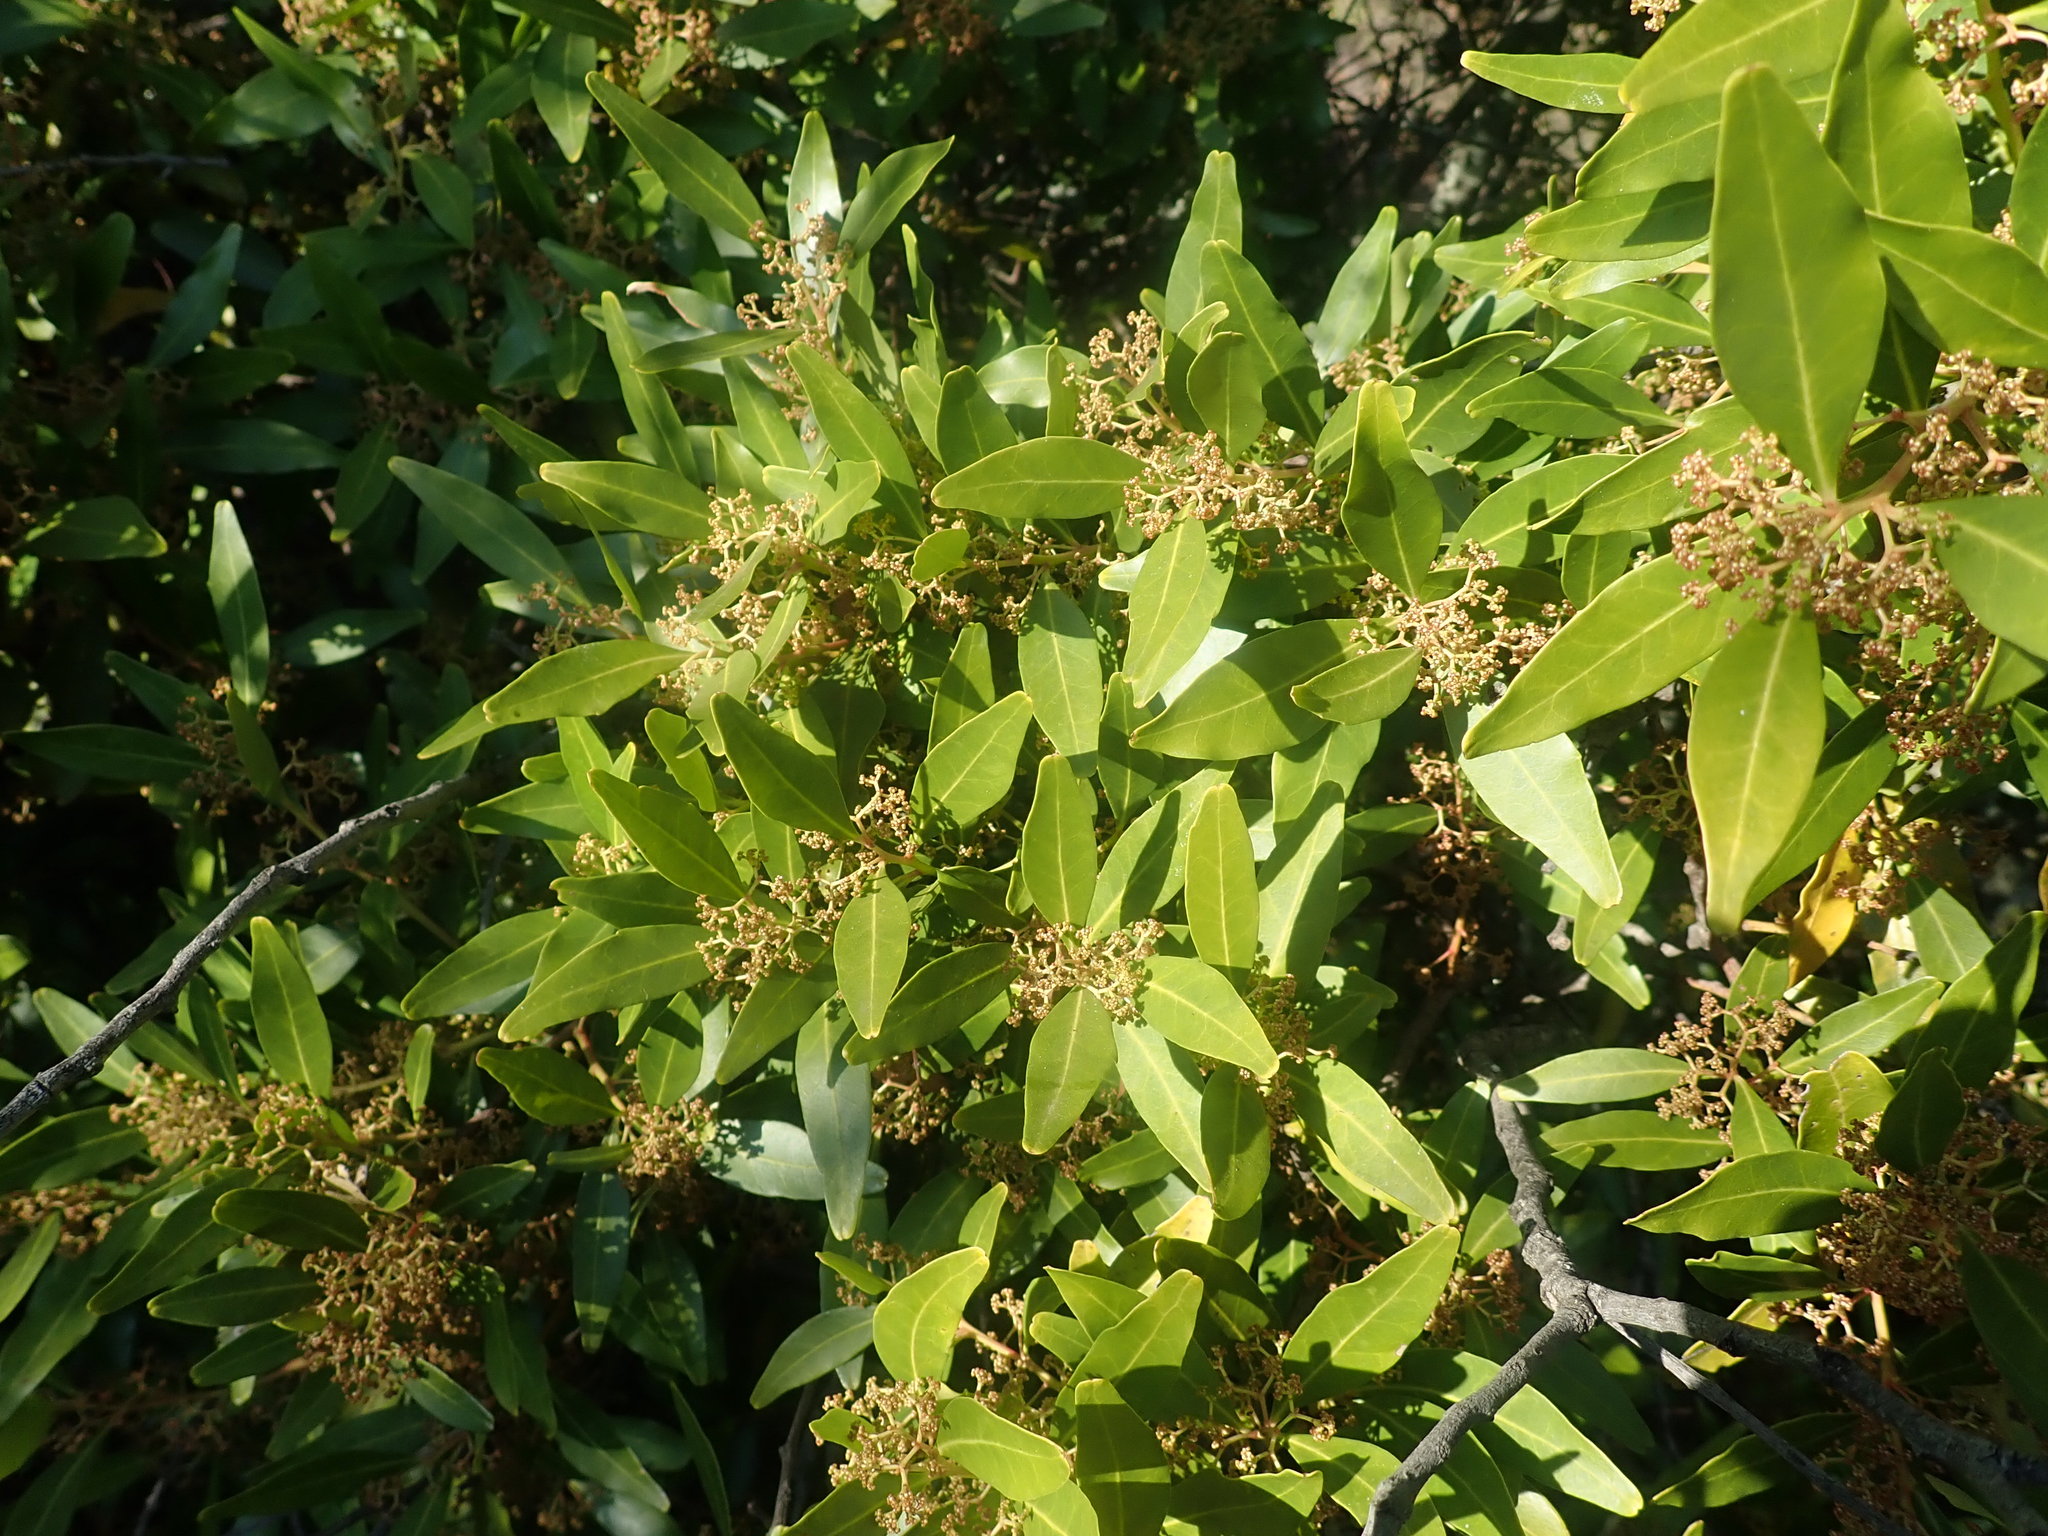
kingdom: Plantae
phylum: Tracheophyta
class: Magnoliopsida
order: Celastrales
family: Celastraceae
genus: Pterocelastrus
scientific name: Pterocelastrus echinatus
